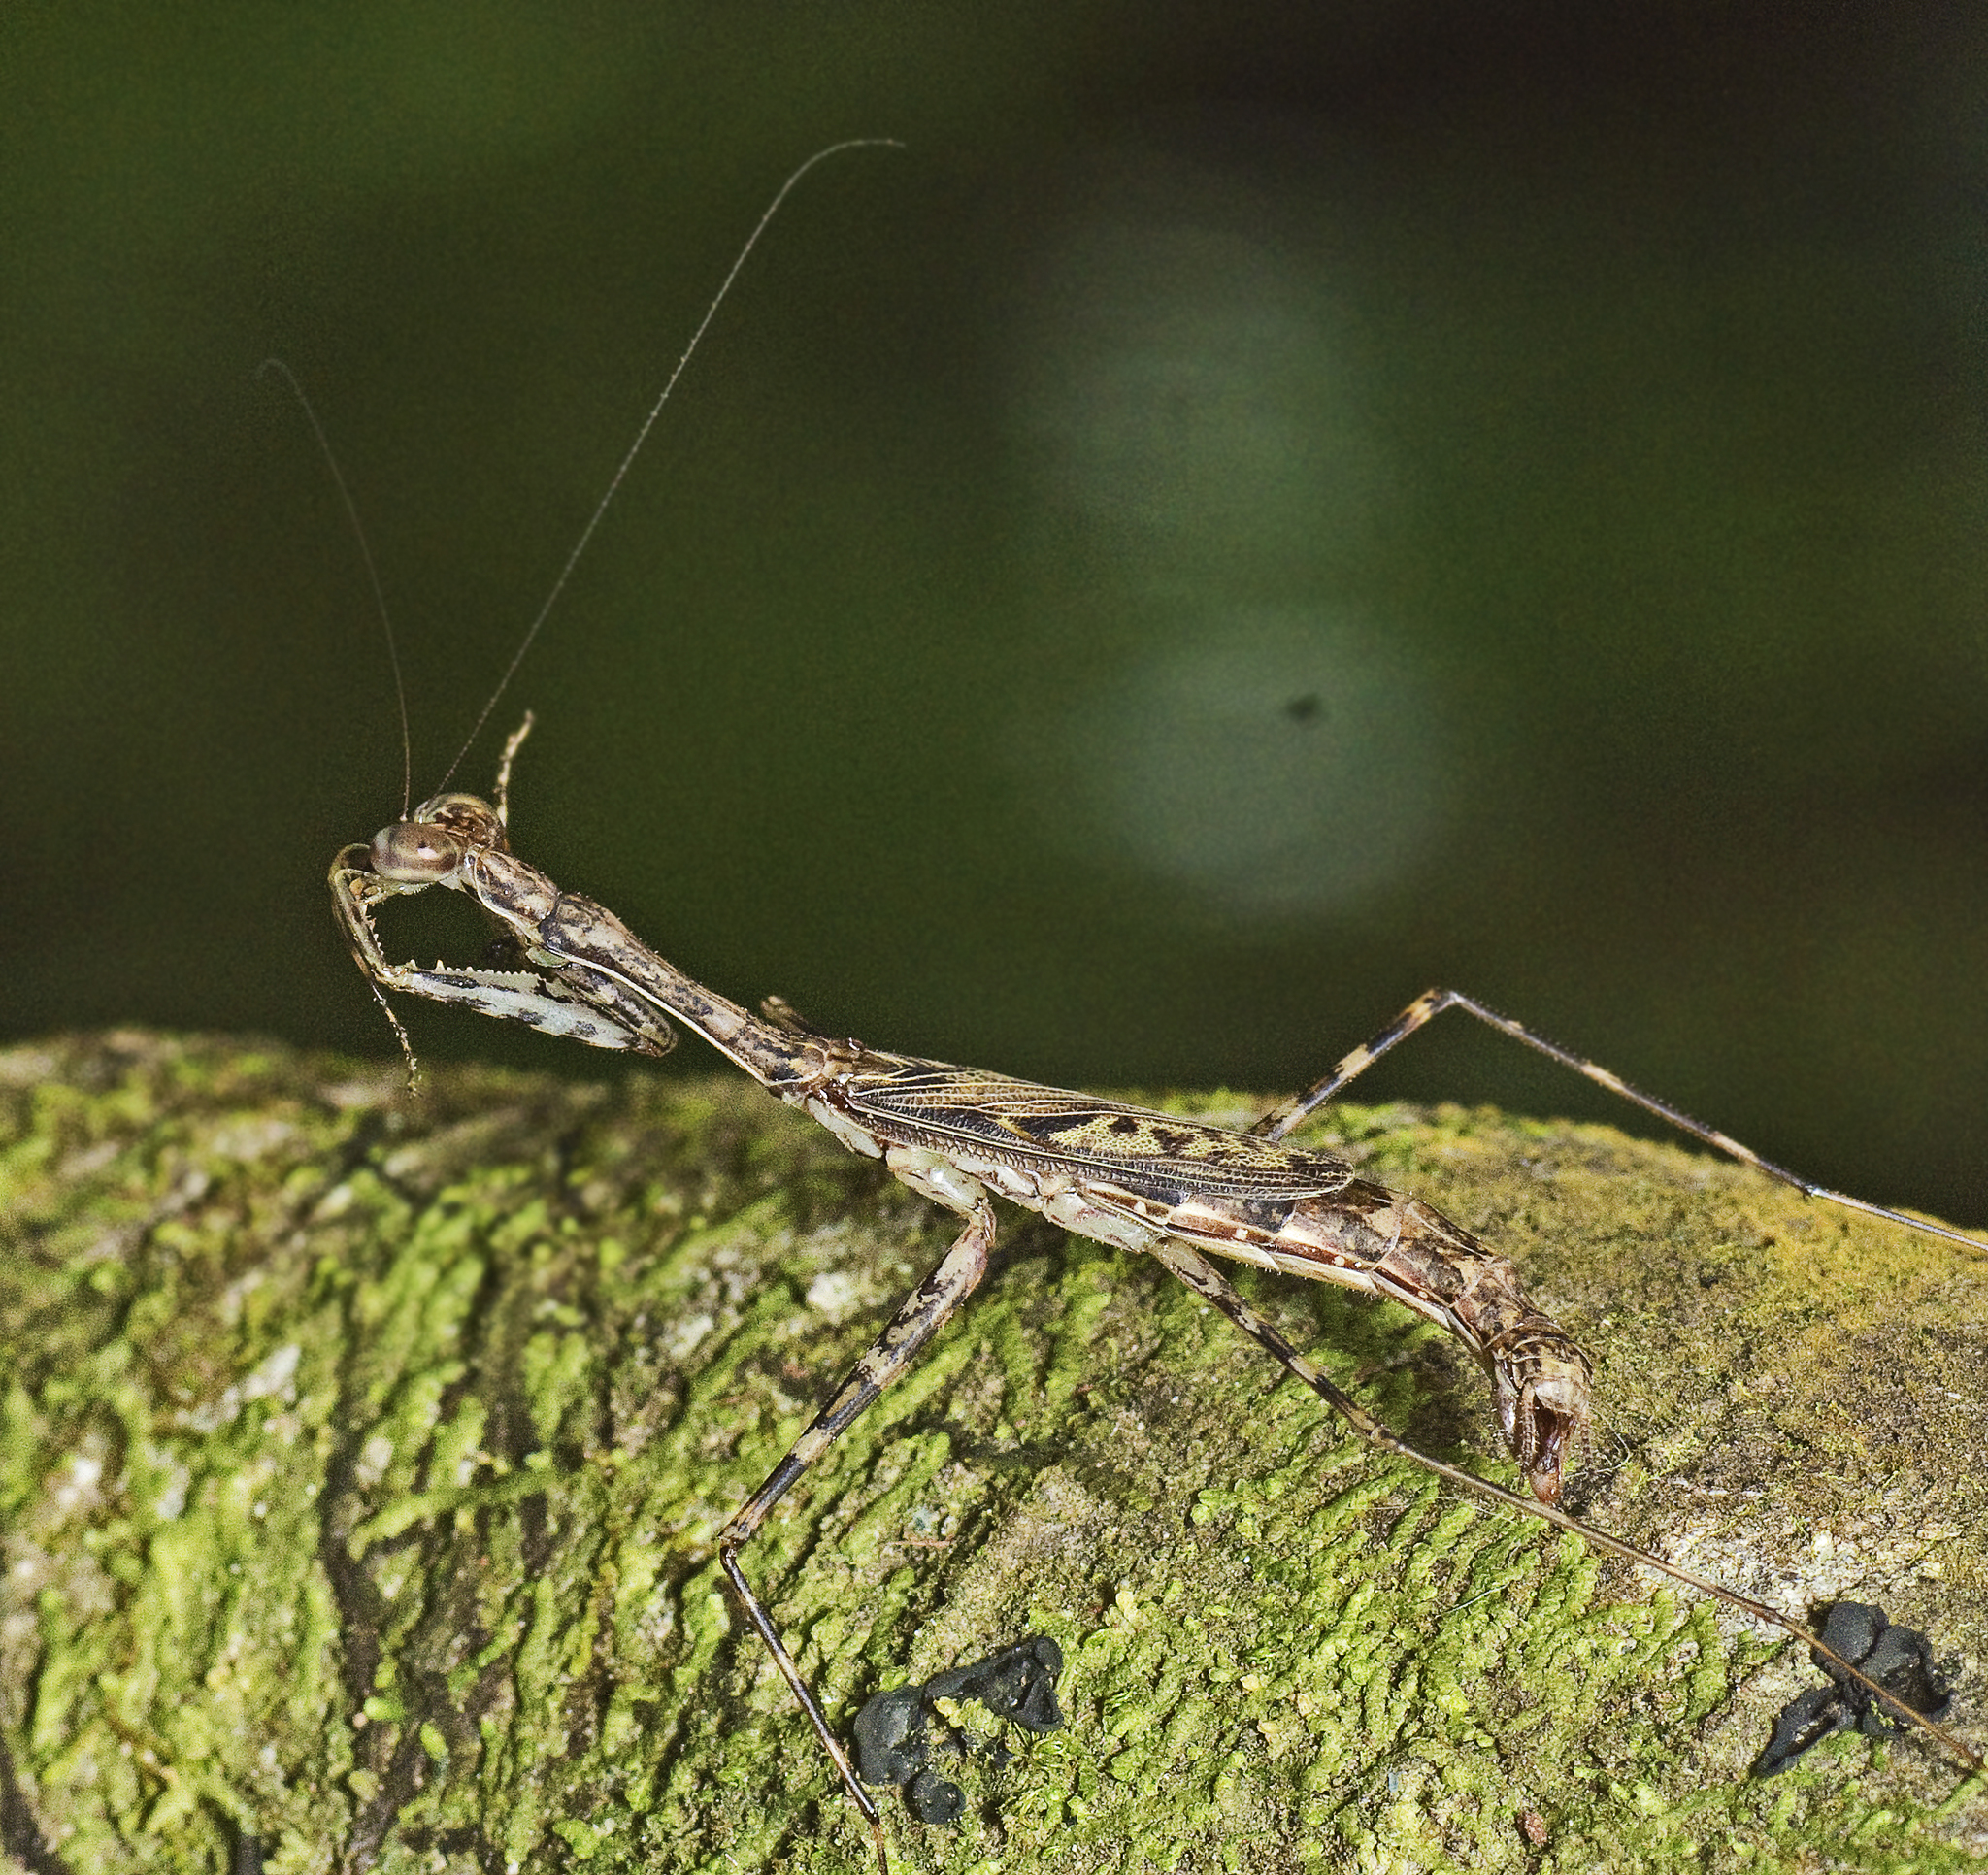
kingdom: Animalia
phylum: Arthropoda
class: Insecta
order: Mantodea
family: Nanomantidae
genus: Ciulfina
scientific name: Ciulfina rentzi
